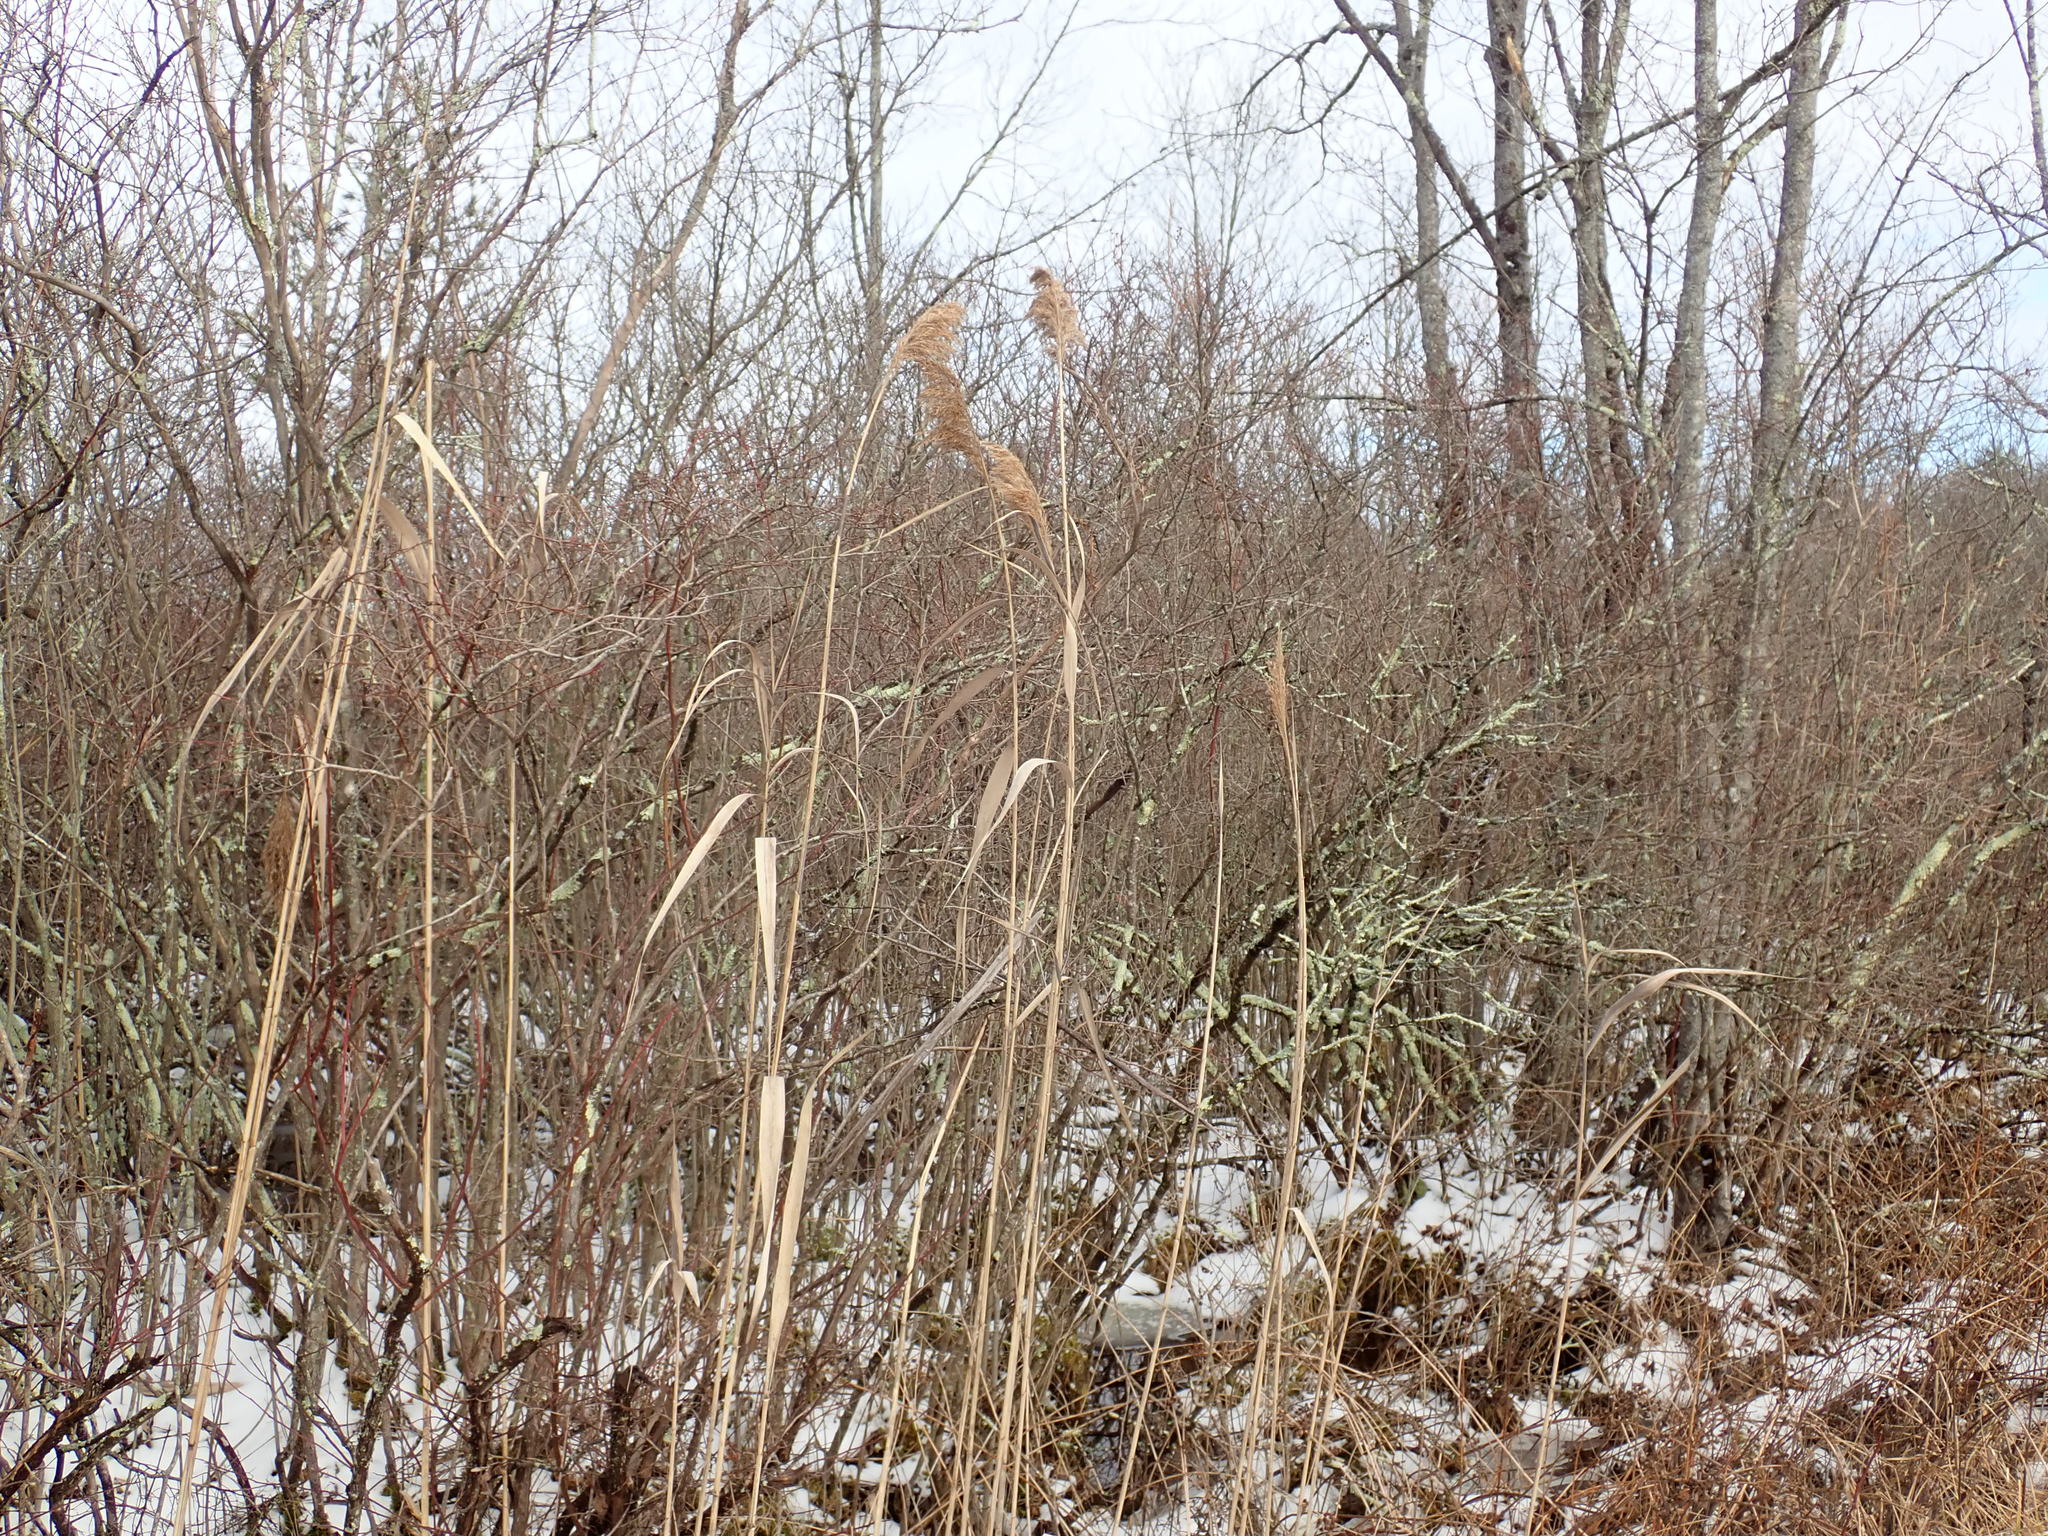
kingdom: Plantae
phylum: Tracheophyta
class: Liliopsida
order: Poales
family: Poaceae
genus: Phragmites
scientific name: Phragmites australis
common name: Common reed
